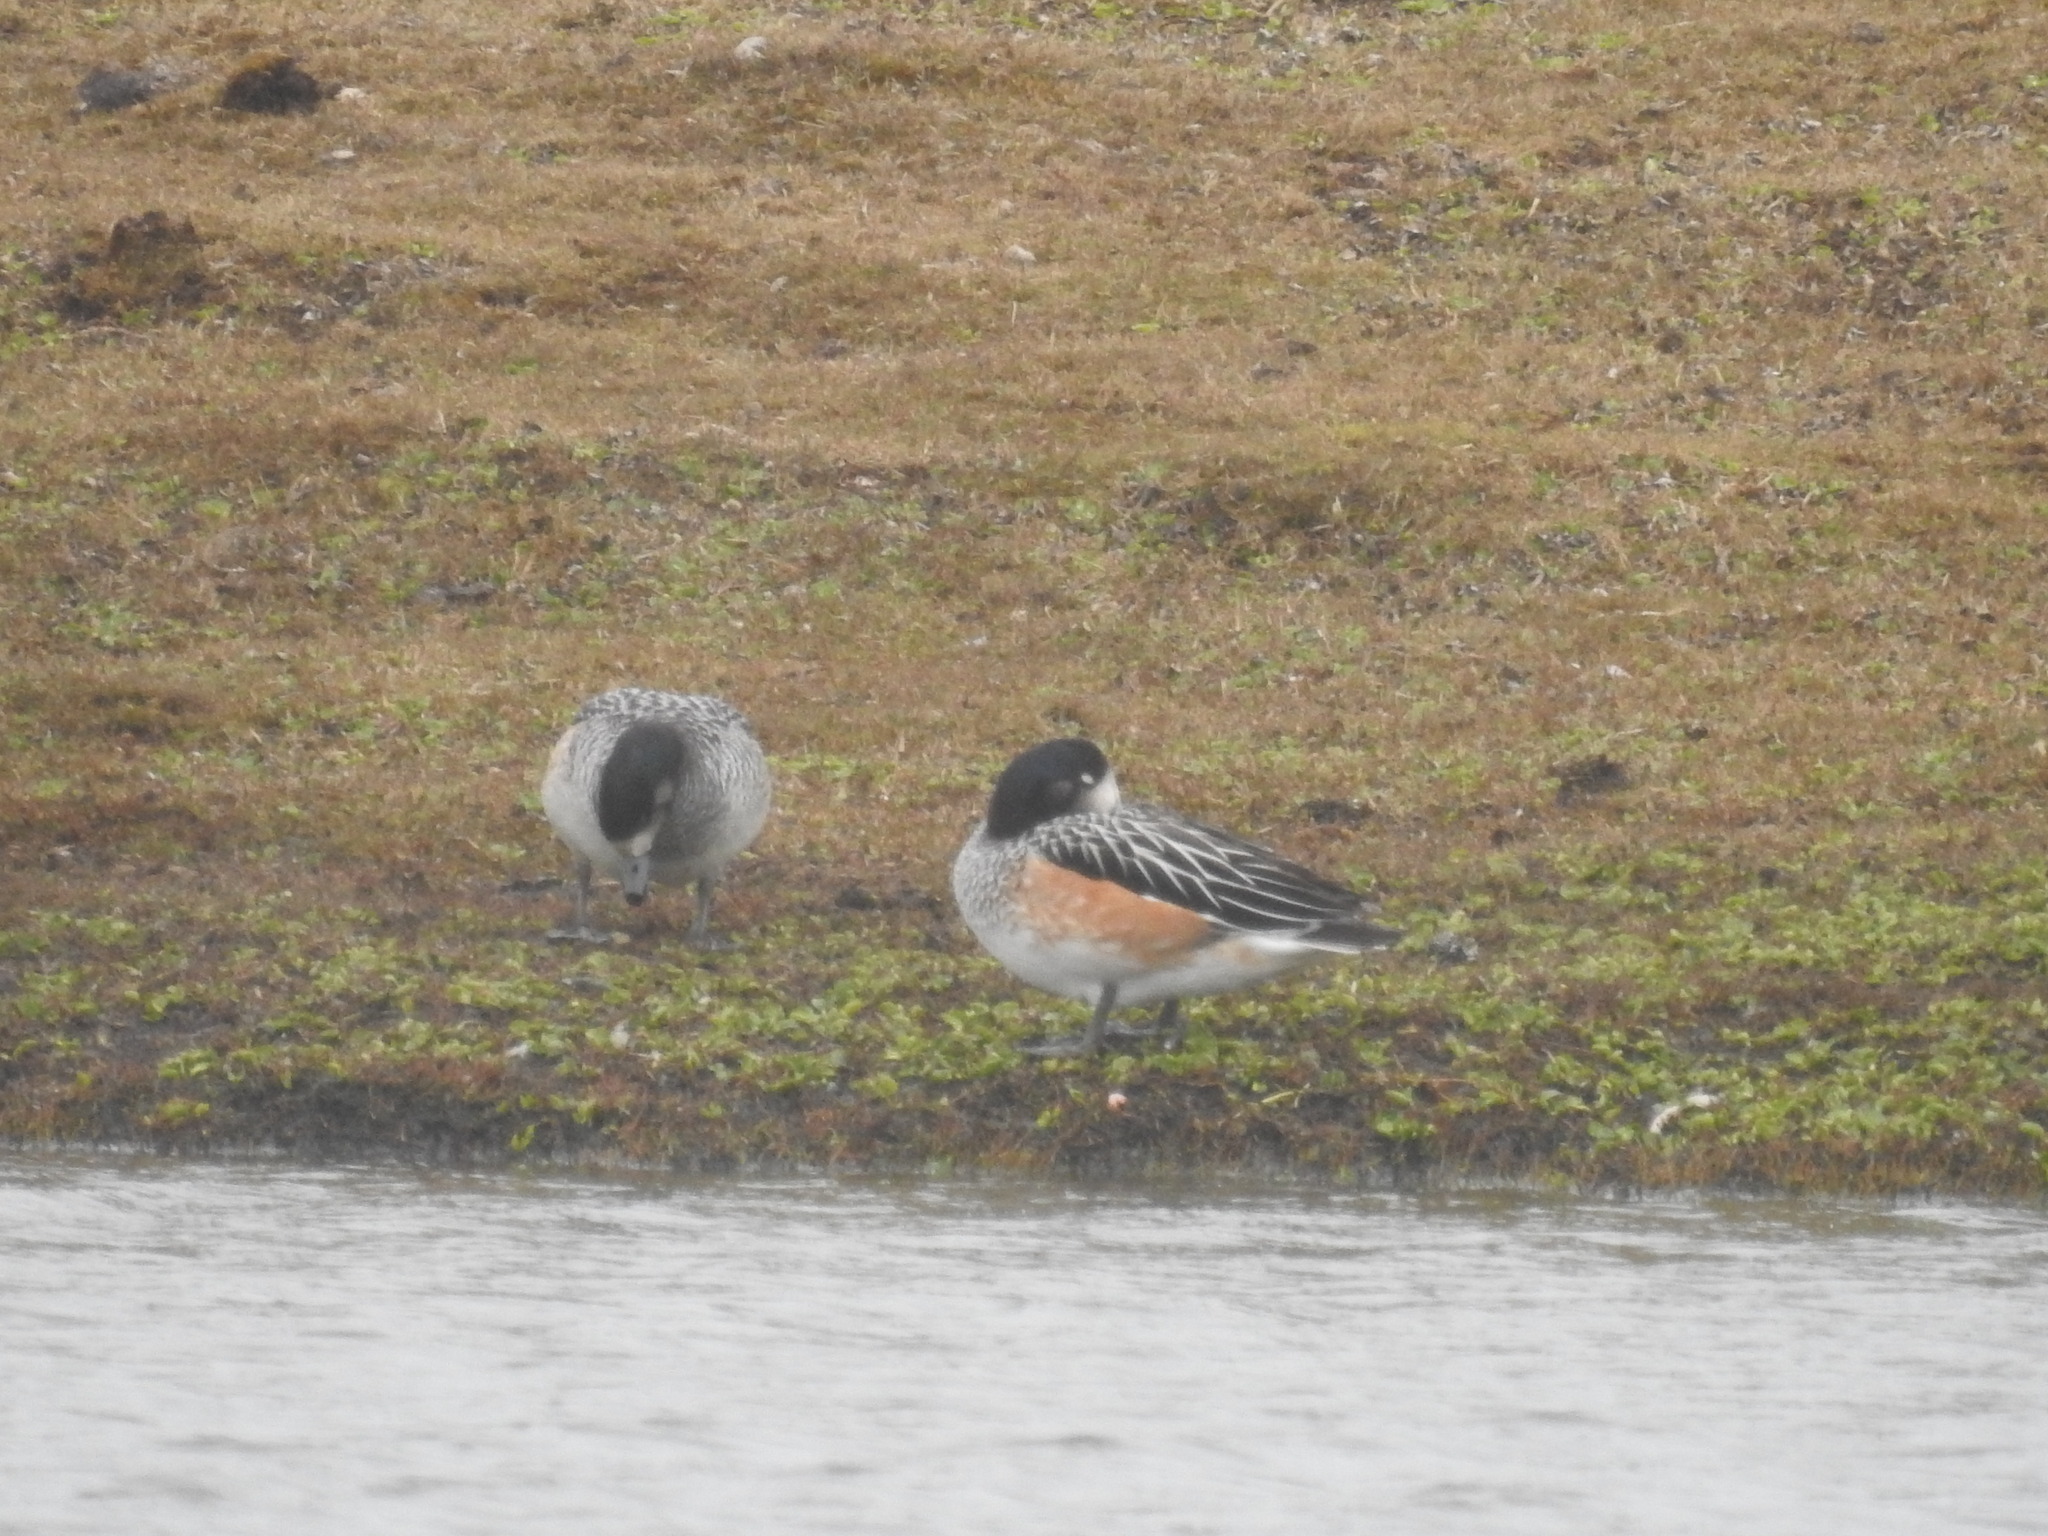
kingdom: Animalia
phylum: Chordata
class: Aves
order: Anseriformes
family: Anatidae
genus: Mareca
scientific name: Mareca sibilatrix
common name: Chiloe wigeon
